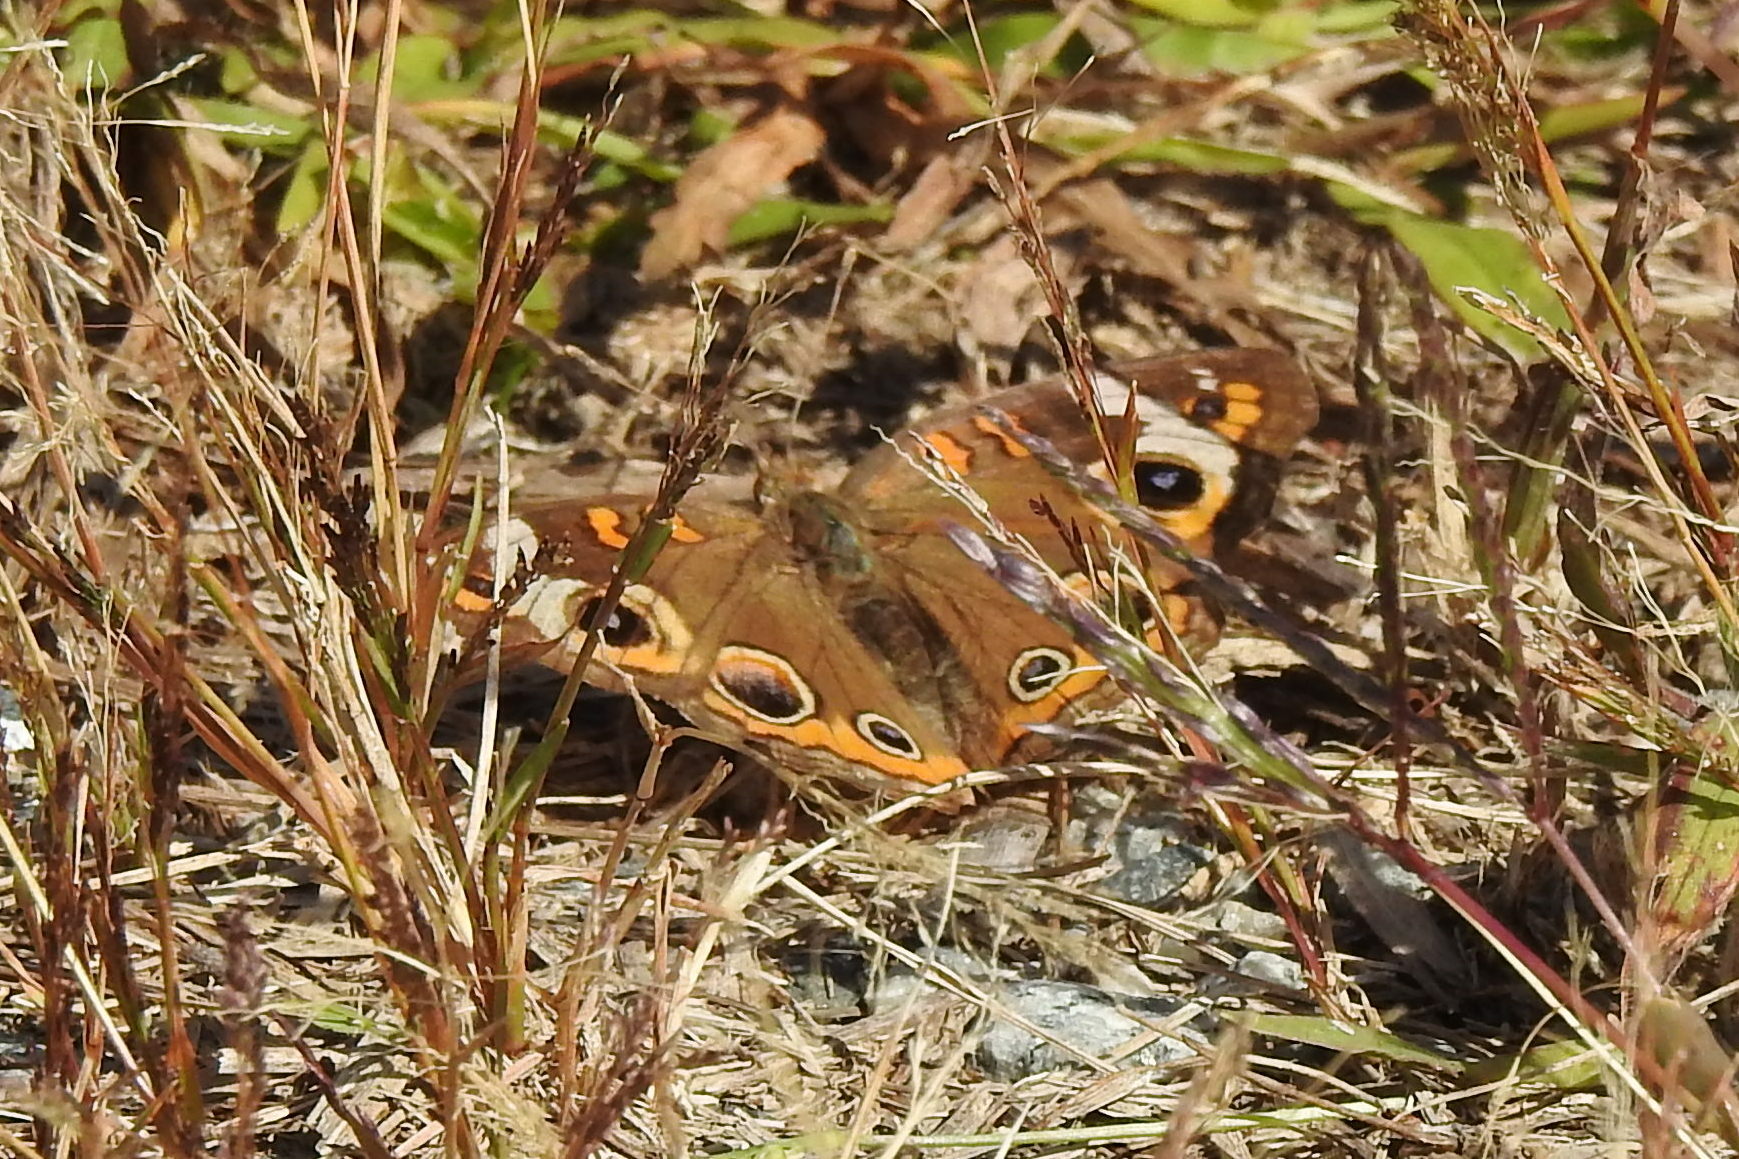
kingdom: Animalia
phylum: Arthropoda
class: Insecta
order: Lepidoptera
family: Nymphalidae
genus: Junonia
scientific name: Junonia coenia
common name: Common buckeye
